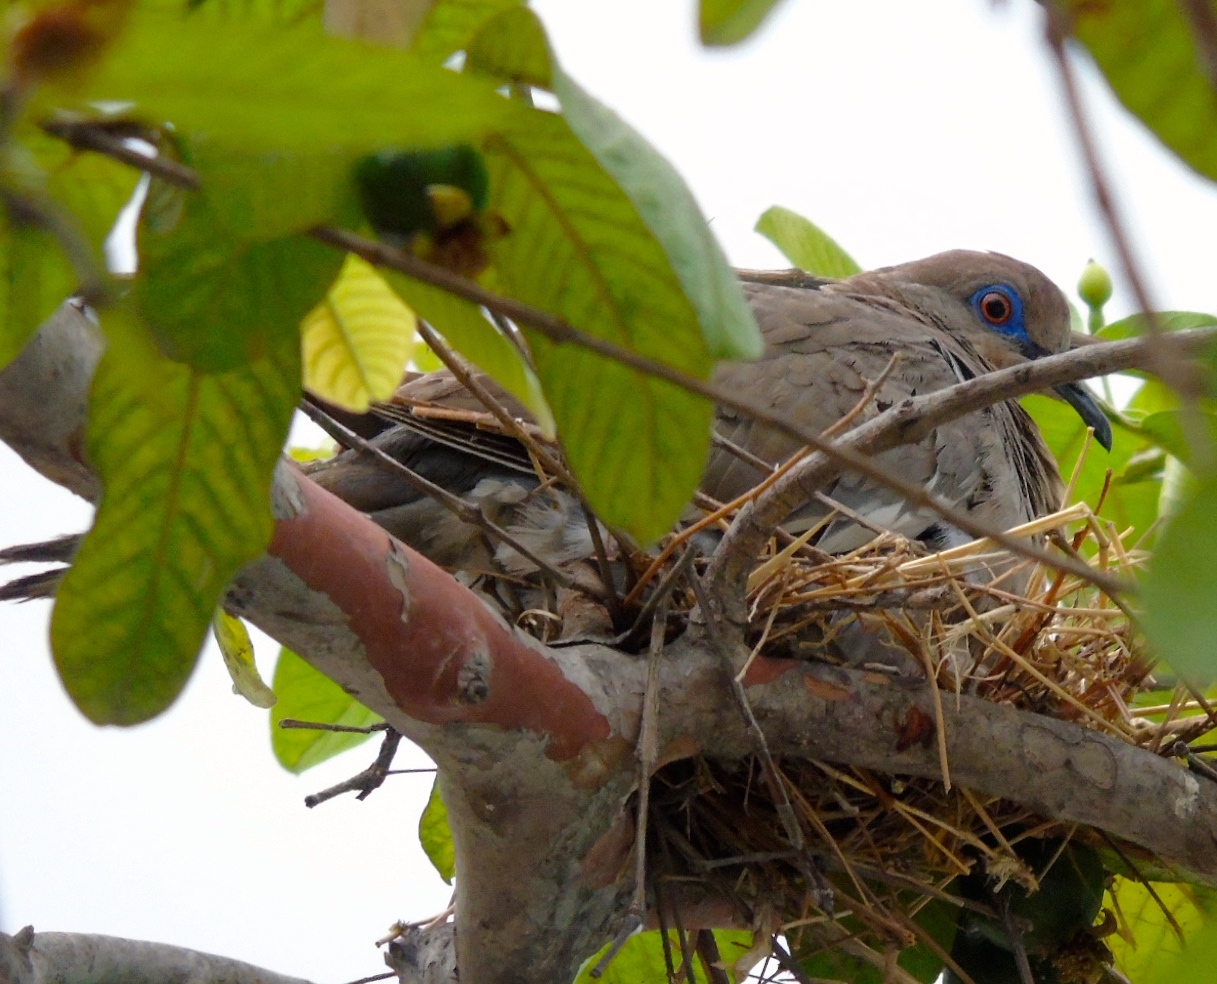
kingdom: Animalia
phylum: Chordata
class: Aves
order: Columbiformes
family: Columbidae
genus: Zenaida
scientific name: Zenaida asiatica
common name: White-winged dove
